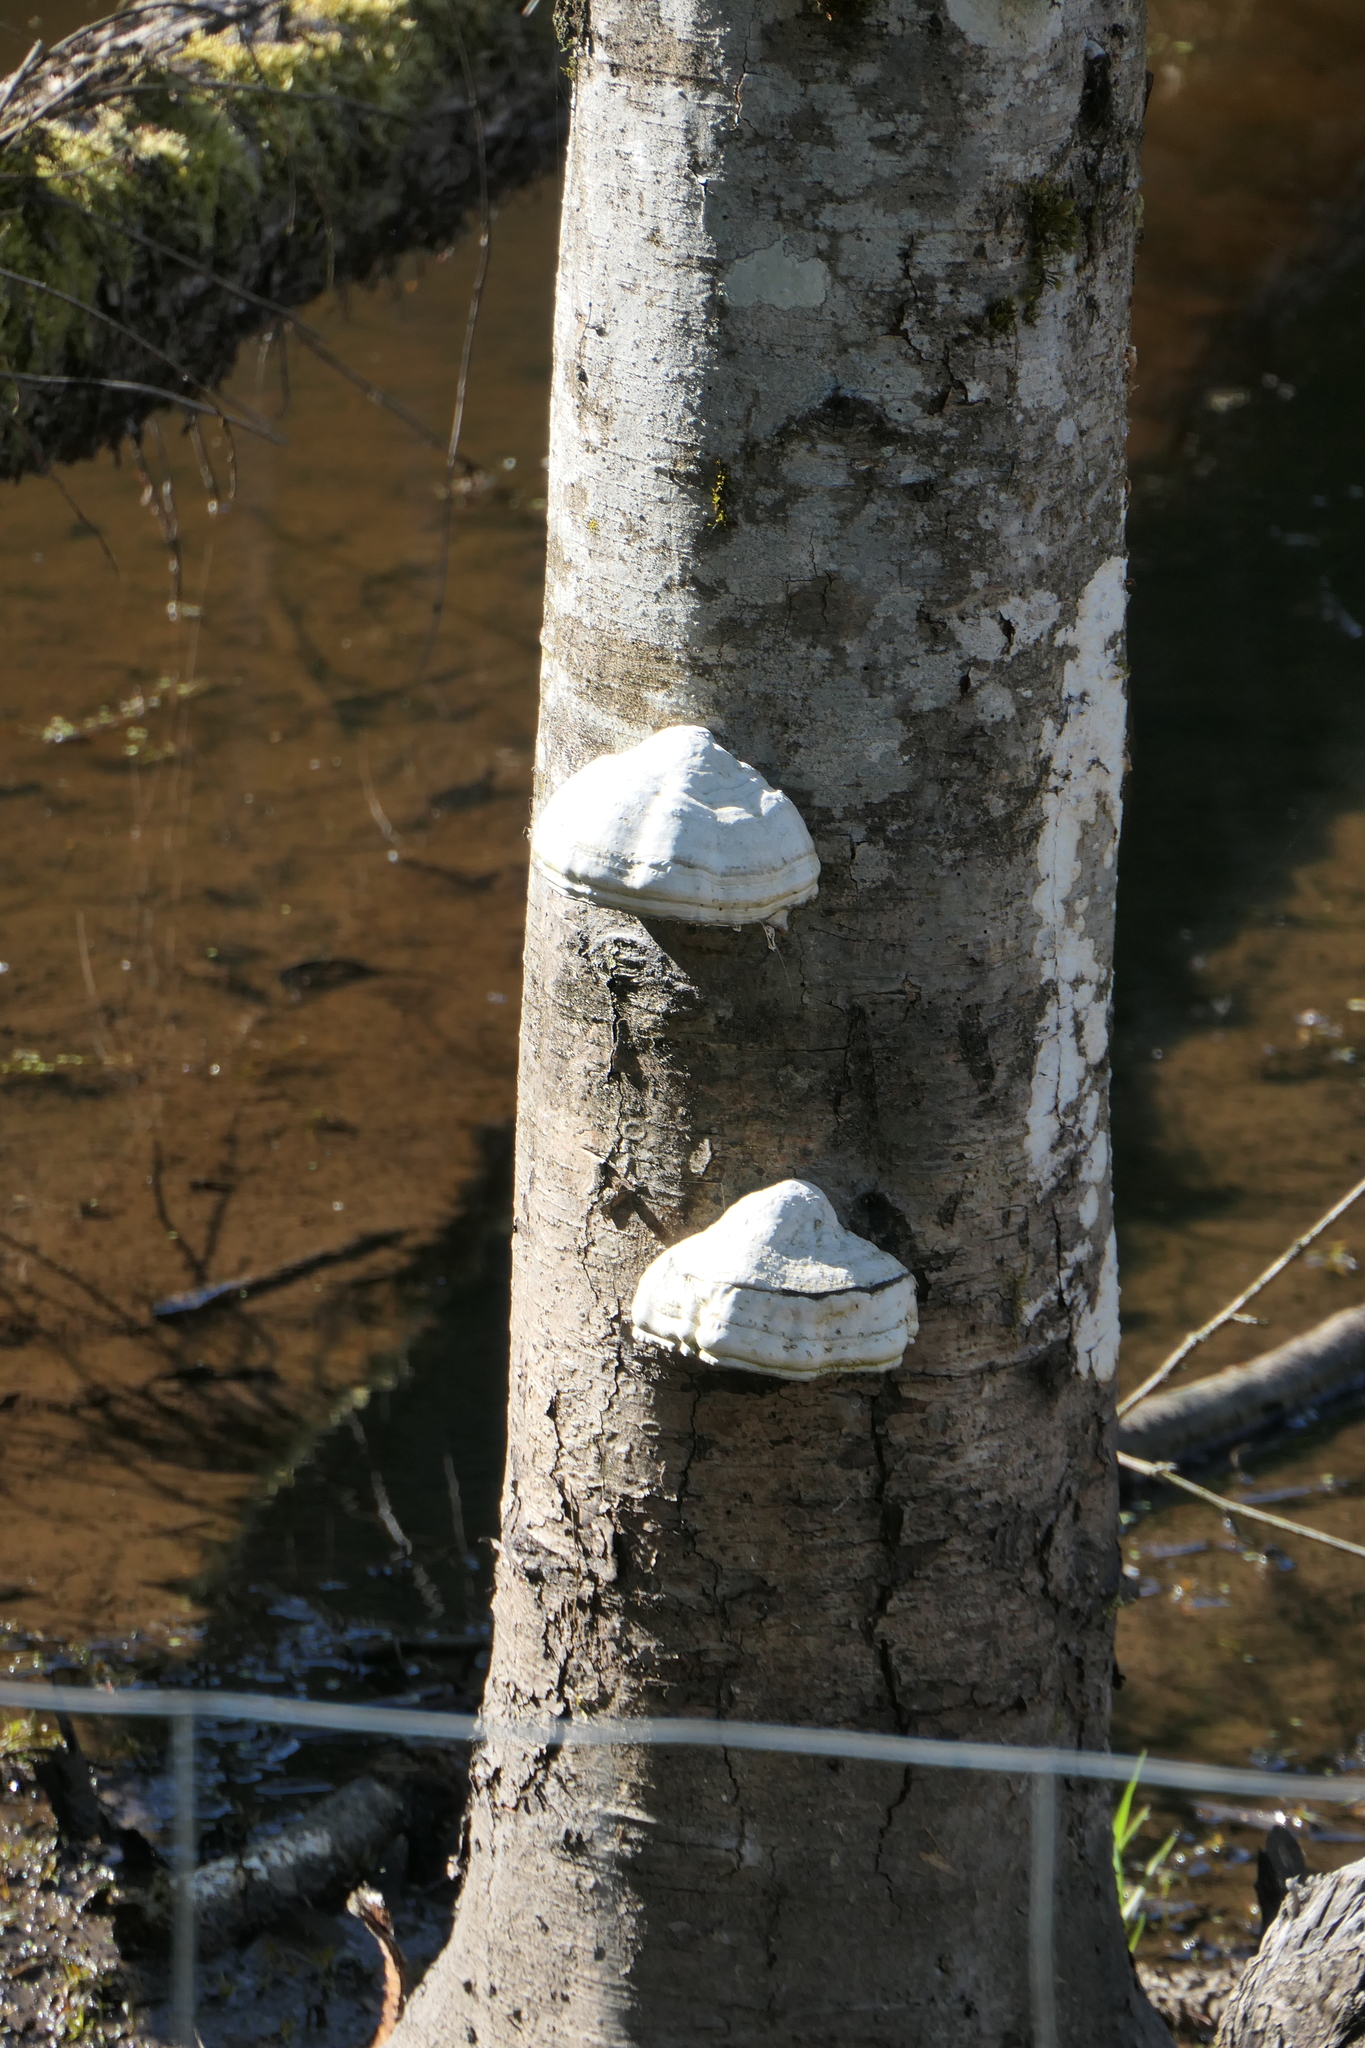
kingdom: Fungi
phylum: Basidiomycota
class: Agaricomycetes
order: Polyporales
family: Polyporaceae
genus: Fomes
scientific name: Fomes fomentarius
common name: Hoof fungus
